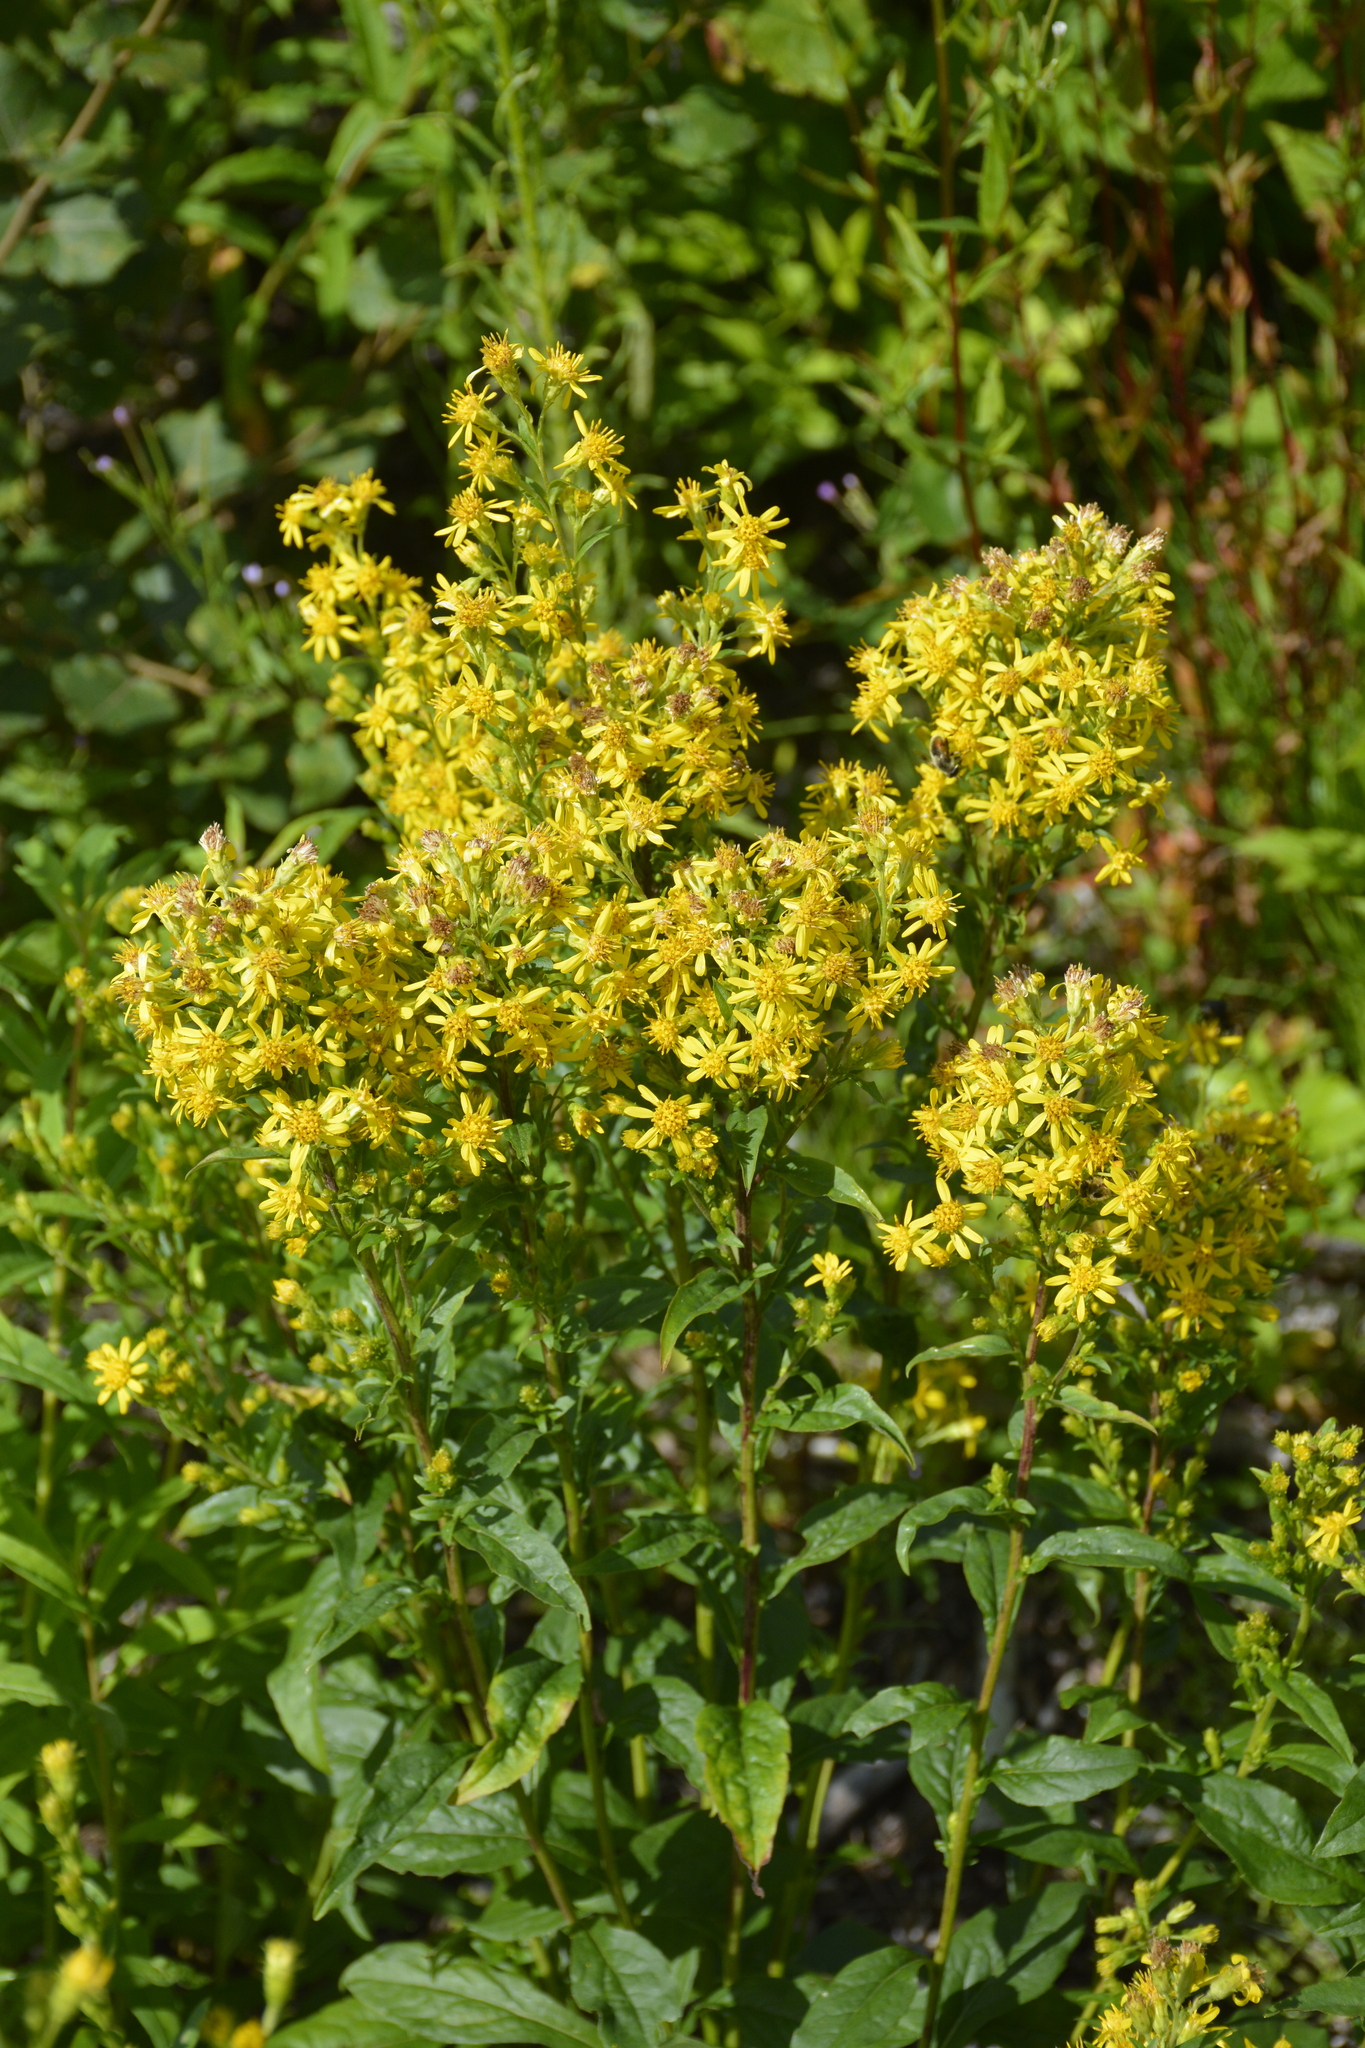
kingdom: Plantae
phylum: Tracheophyta
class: Magnoliopsida
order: Asterales
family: Asteraceae
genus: Solidago
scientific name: Solidago virgaurea
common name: Goldenrod
